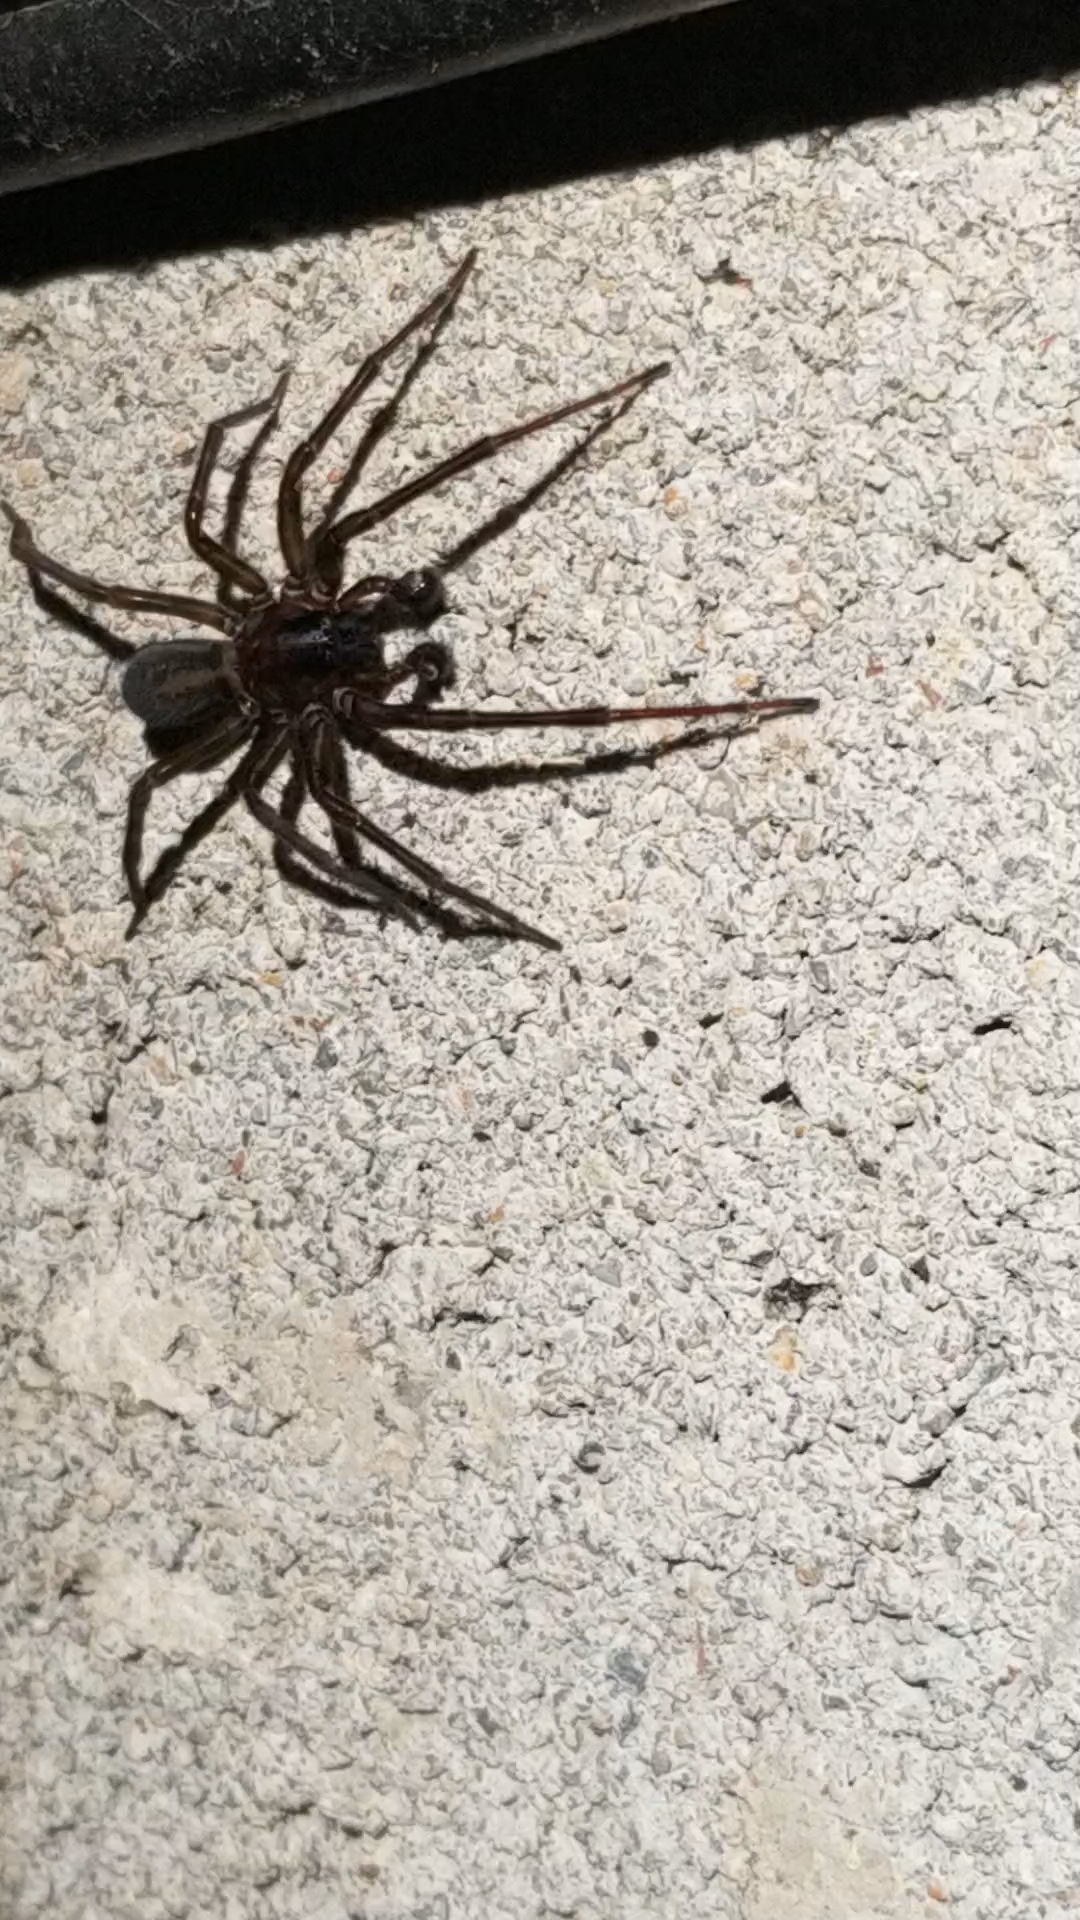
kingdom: Animalia
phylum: Arthropoda
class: Arachnida
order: Araneae
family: Amaurobiidae
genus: Amaurobius
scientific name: Amaurobius ferox
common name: Black laceweaver
